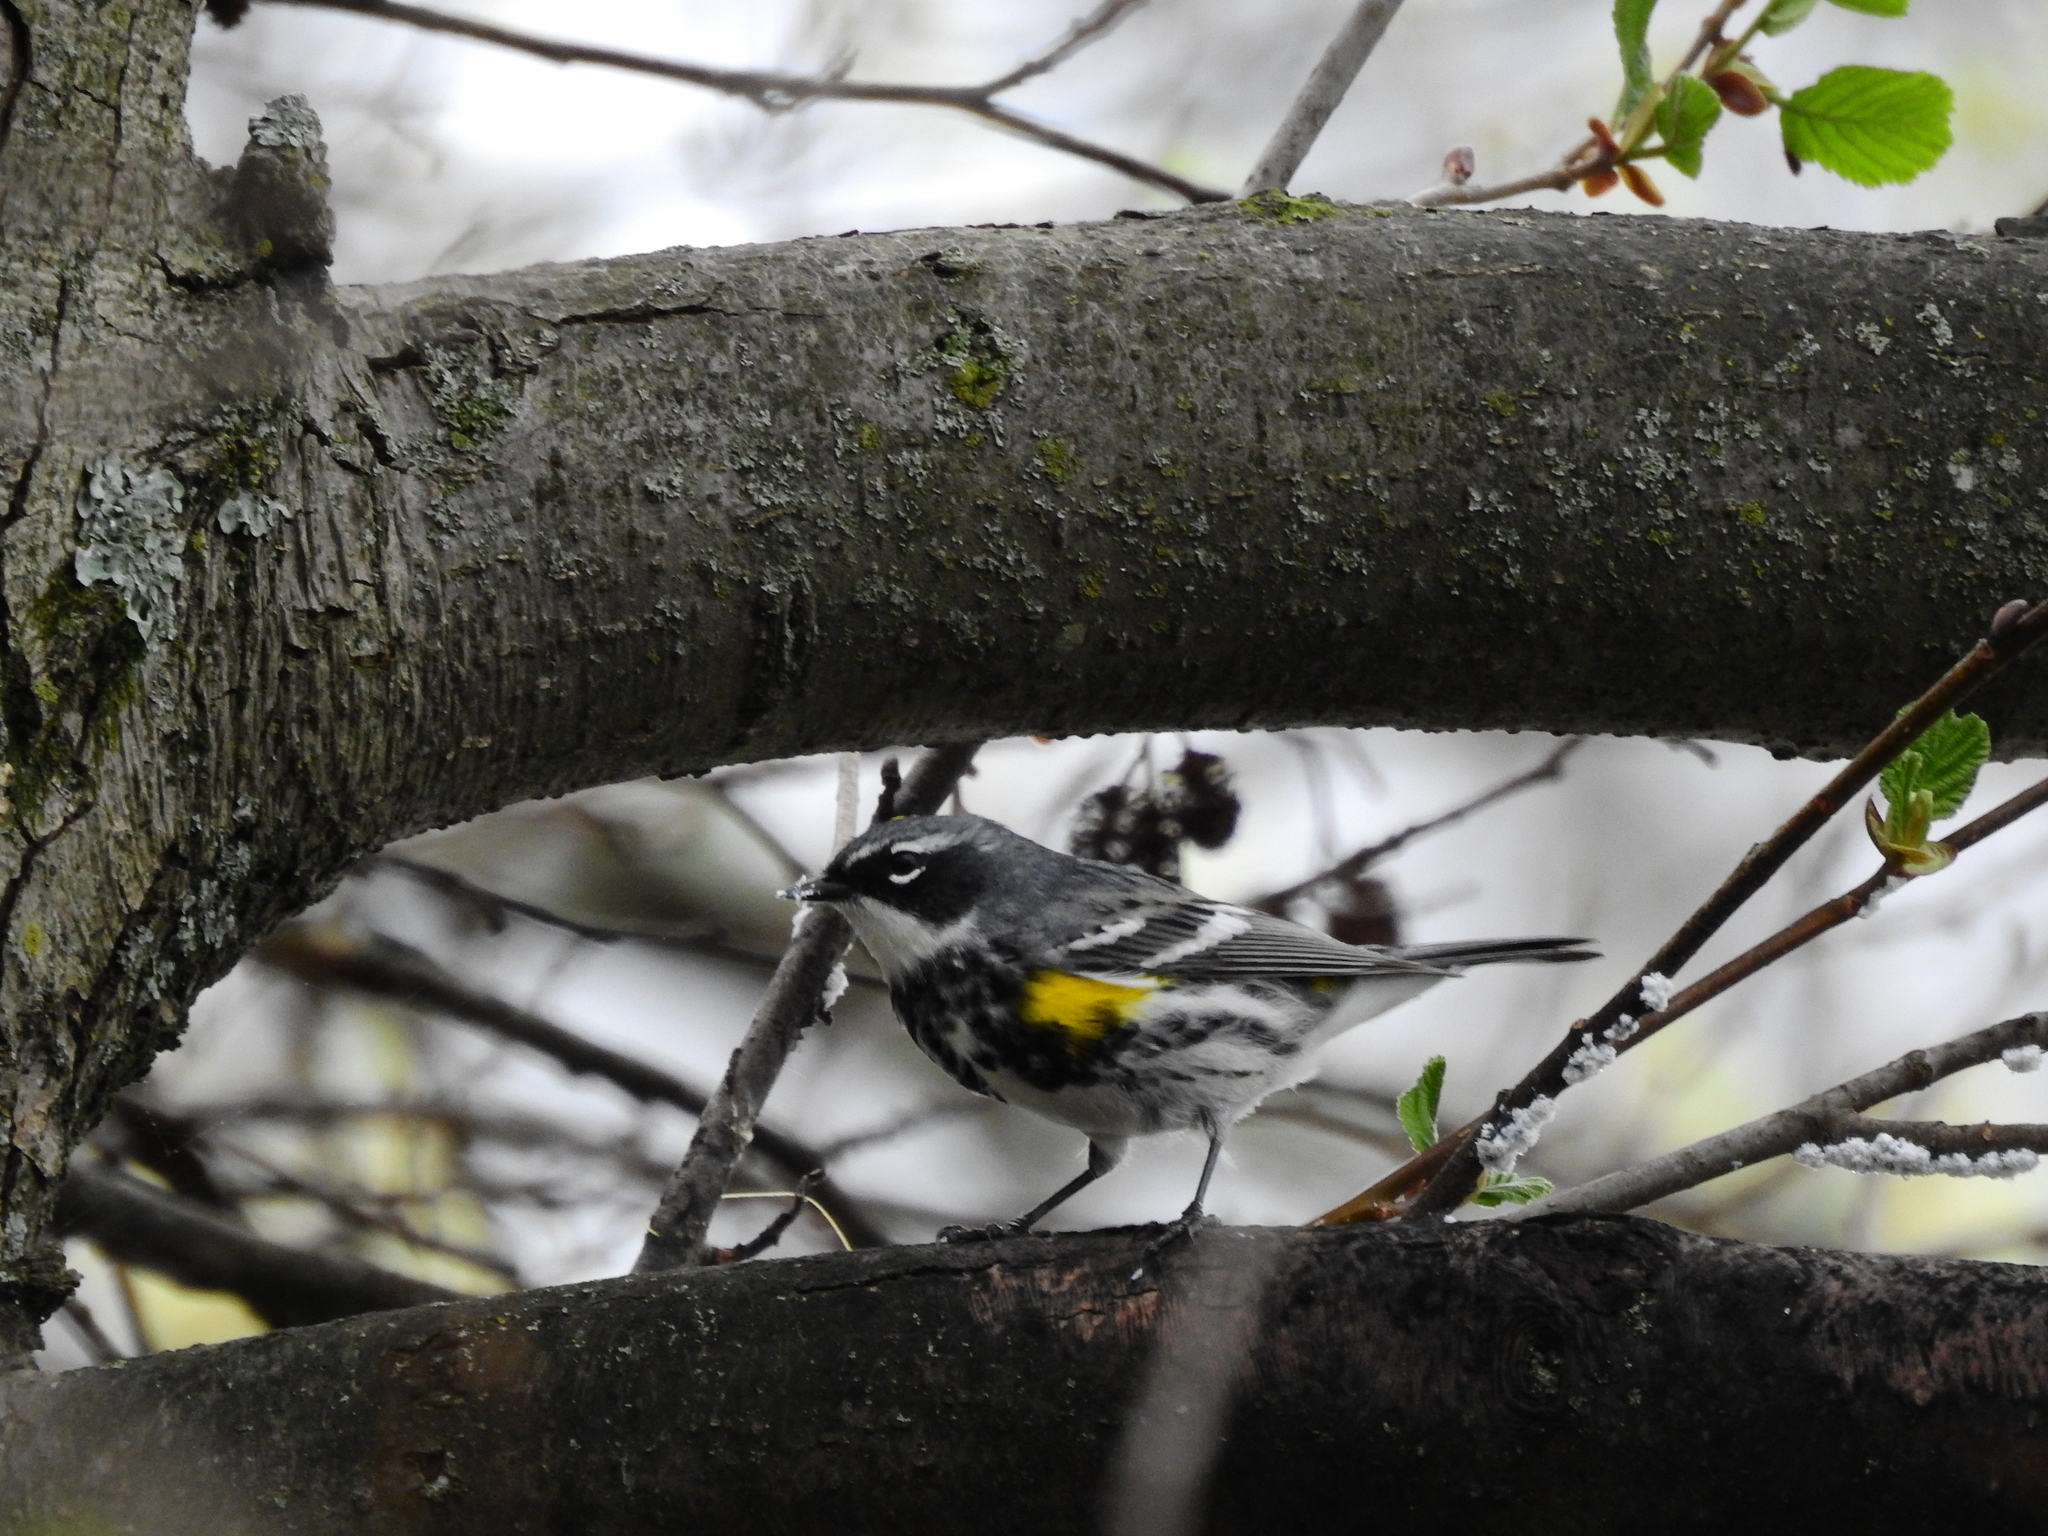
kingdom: Animalia
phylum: Chordata
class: Aves
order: Passeriformes
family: Parulidae
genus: Setophaga
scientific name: Setophaga coronata
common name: Myrtle warbler
